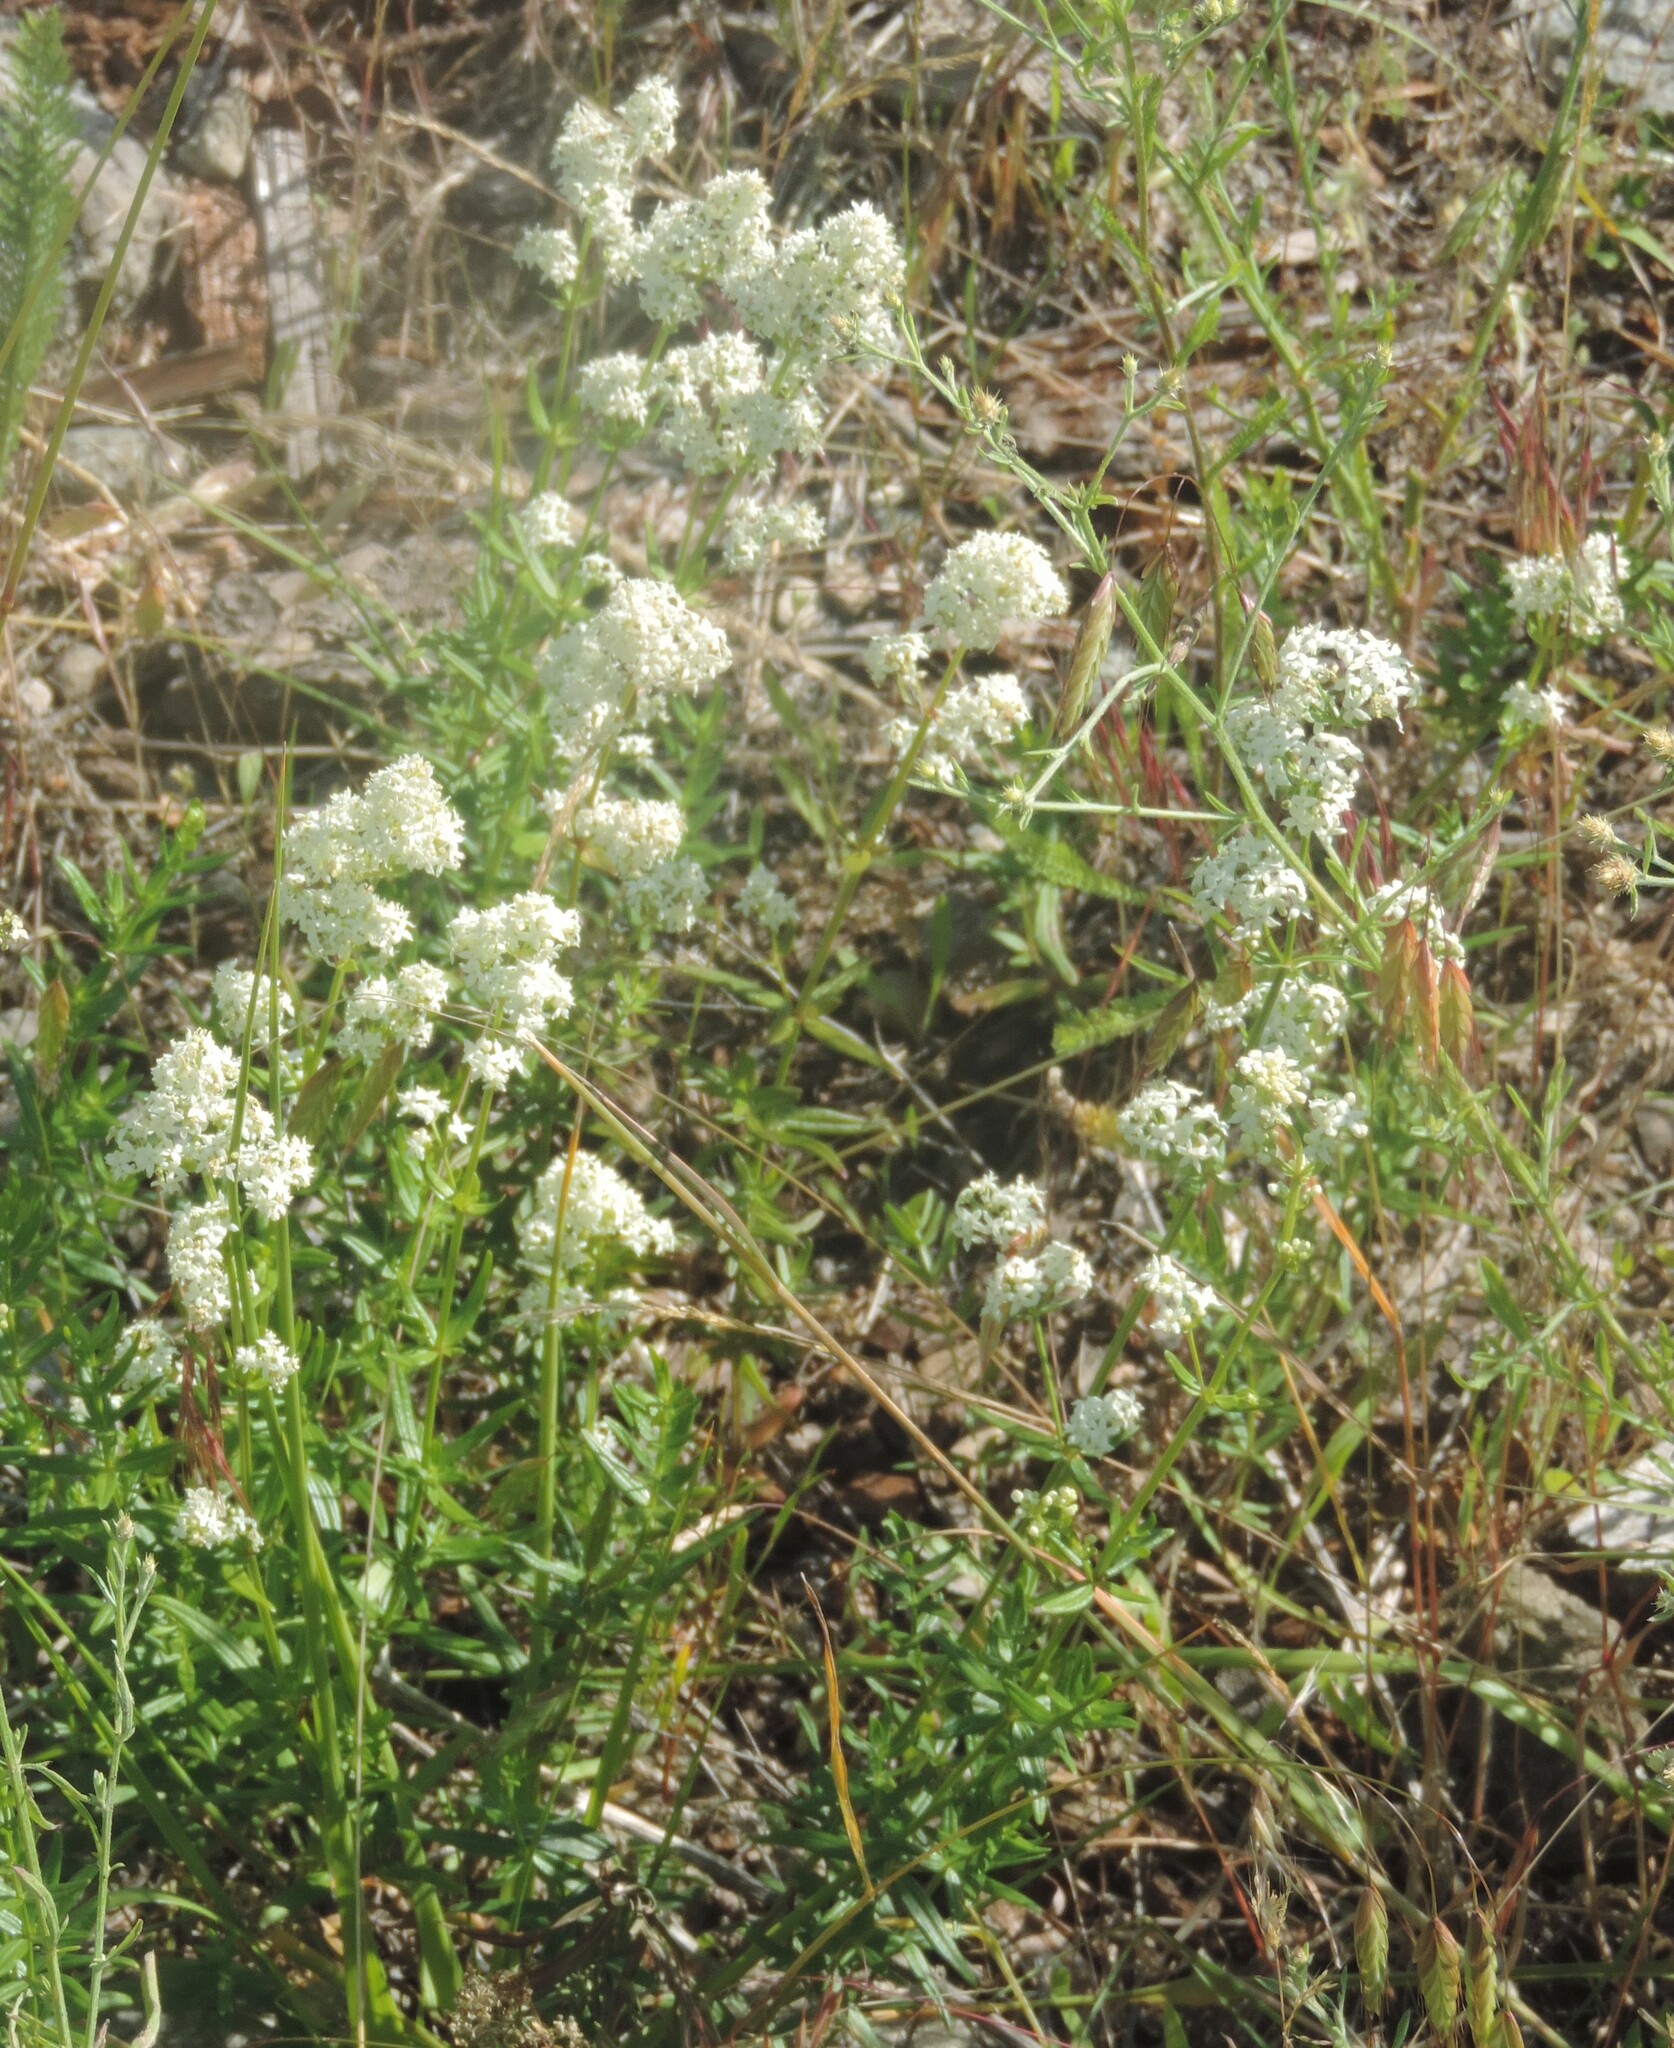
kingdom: Plantae
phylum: Tracheophyta
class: Magnoliopsida
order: Gentianales
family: Rubiaceae
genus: Galium
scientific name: Galium boreale
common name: Northern bedstraw
